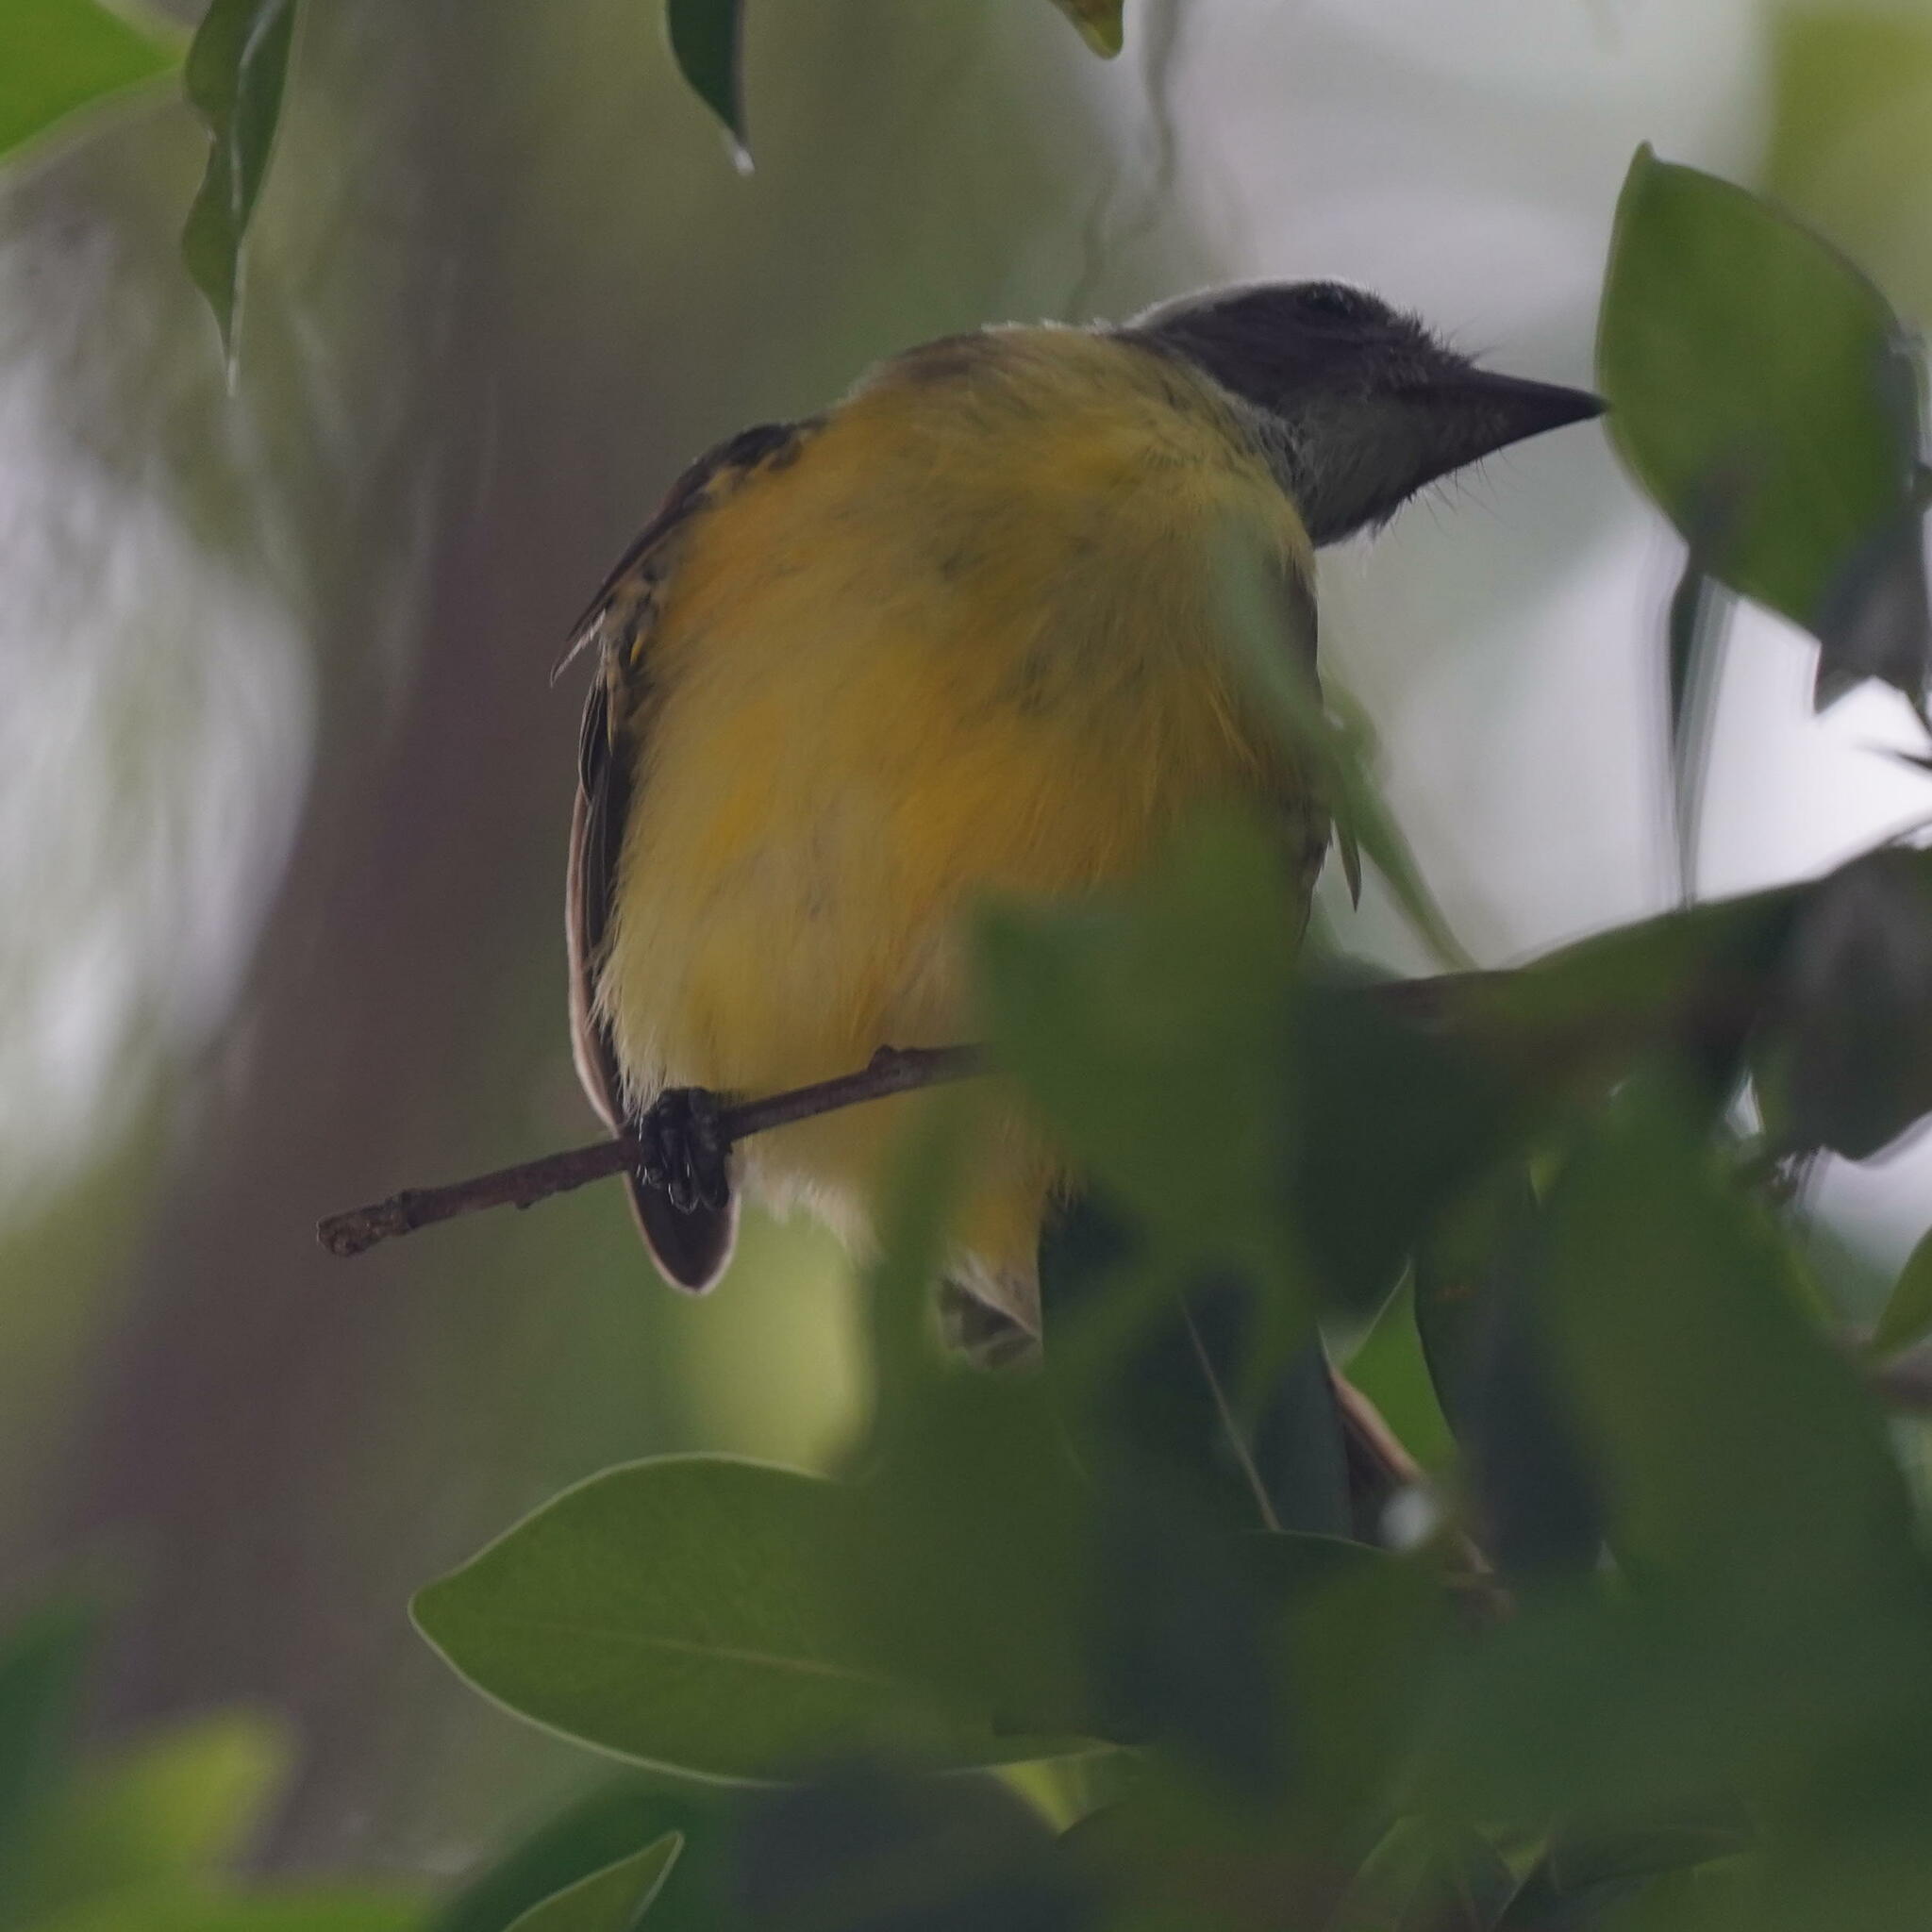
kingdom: Animalia
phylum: Chordata
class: Aves
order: Passeriformes
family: Tyrannidae
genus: Myiozetetes
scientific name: Myiozetetes similis
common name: Social flycatcher
